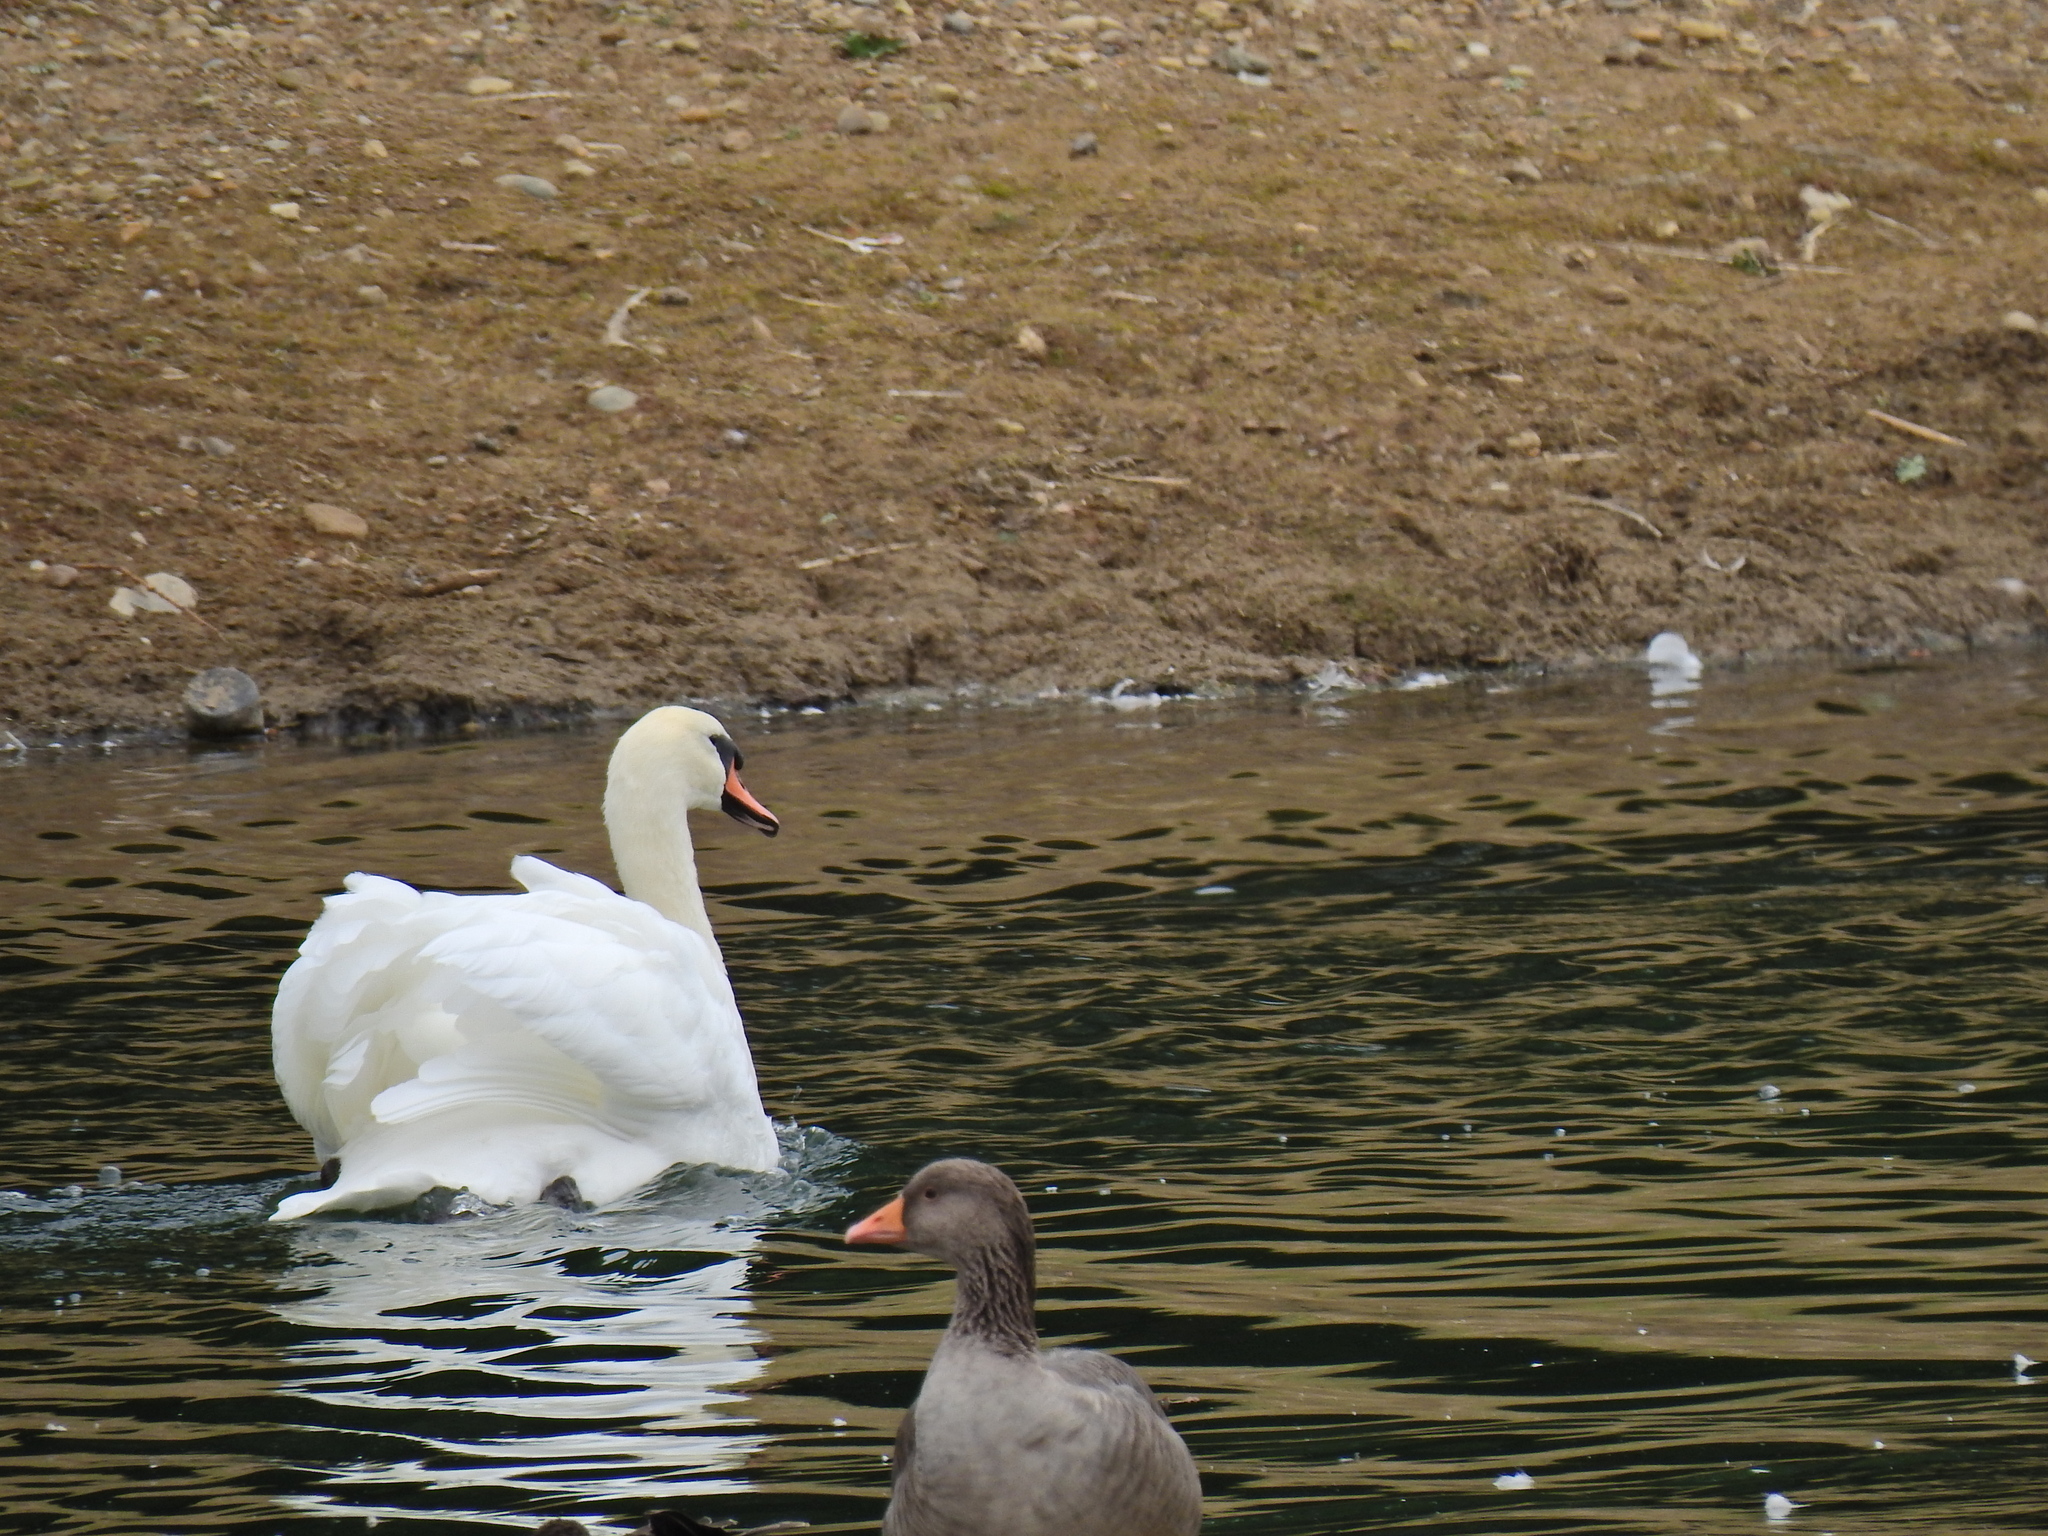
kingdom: Animalia
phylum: Chordata
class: Aves
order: Anseriformes
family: Anatidae
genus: Cygnus
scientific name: Cygnus olor
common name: Mute swan
